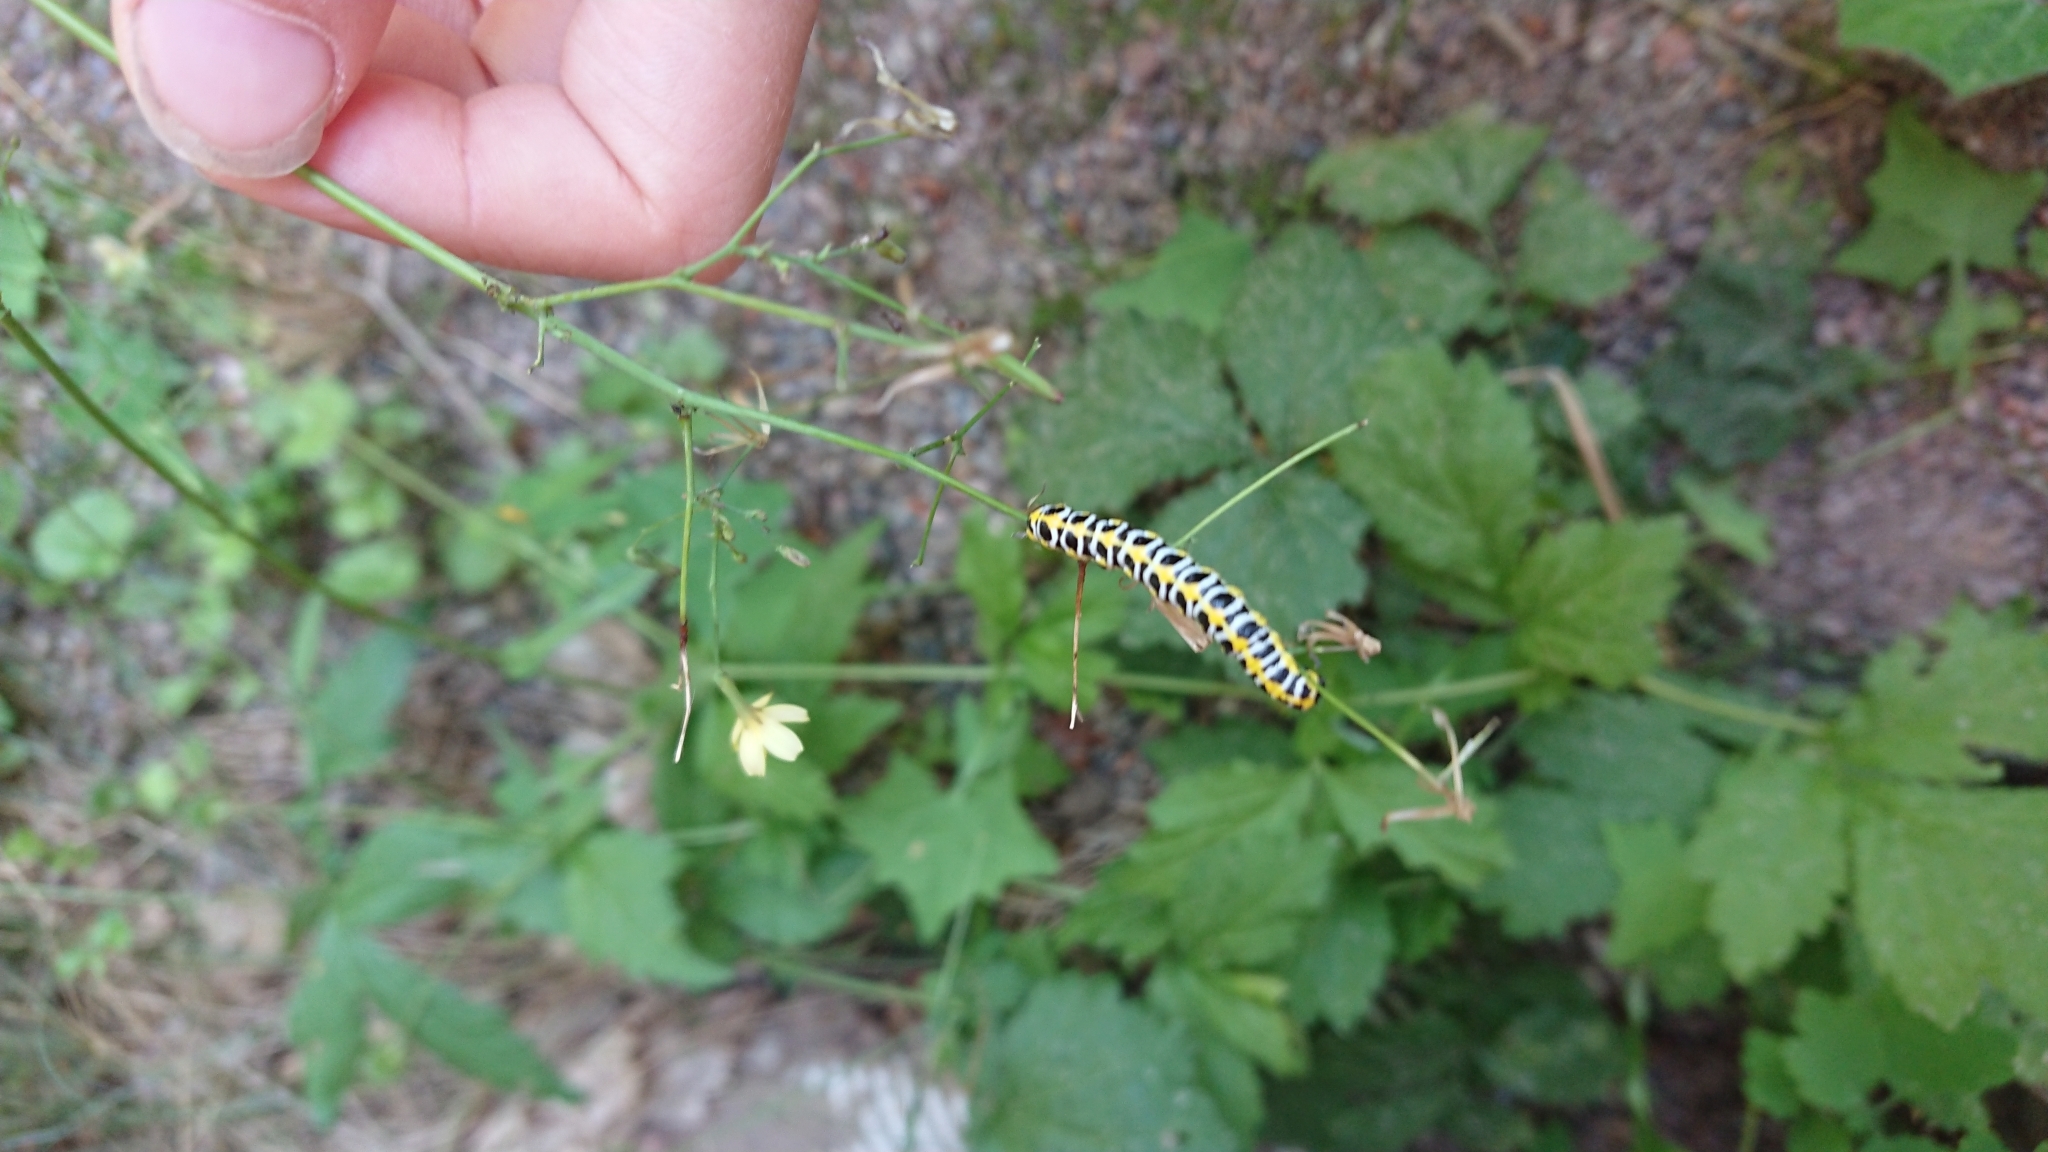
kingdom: Animalia
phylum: Arthropoda
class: Insecta
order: Lepidoptera
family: Noctuidae
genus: Cucullia
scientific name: Cucullia lactucae
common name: Lettuce shark
